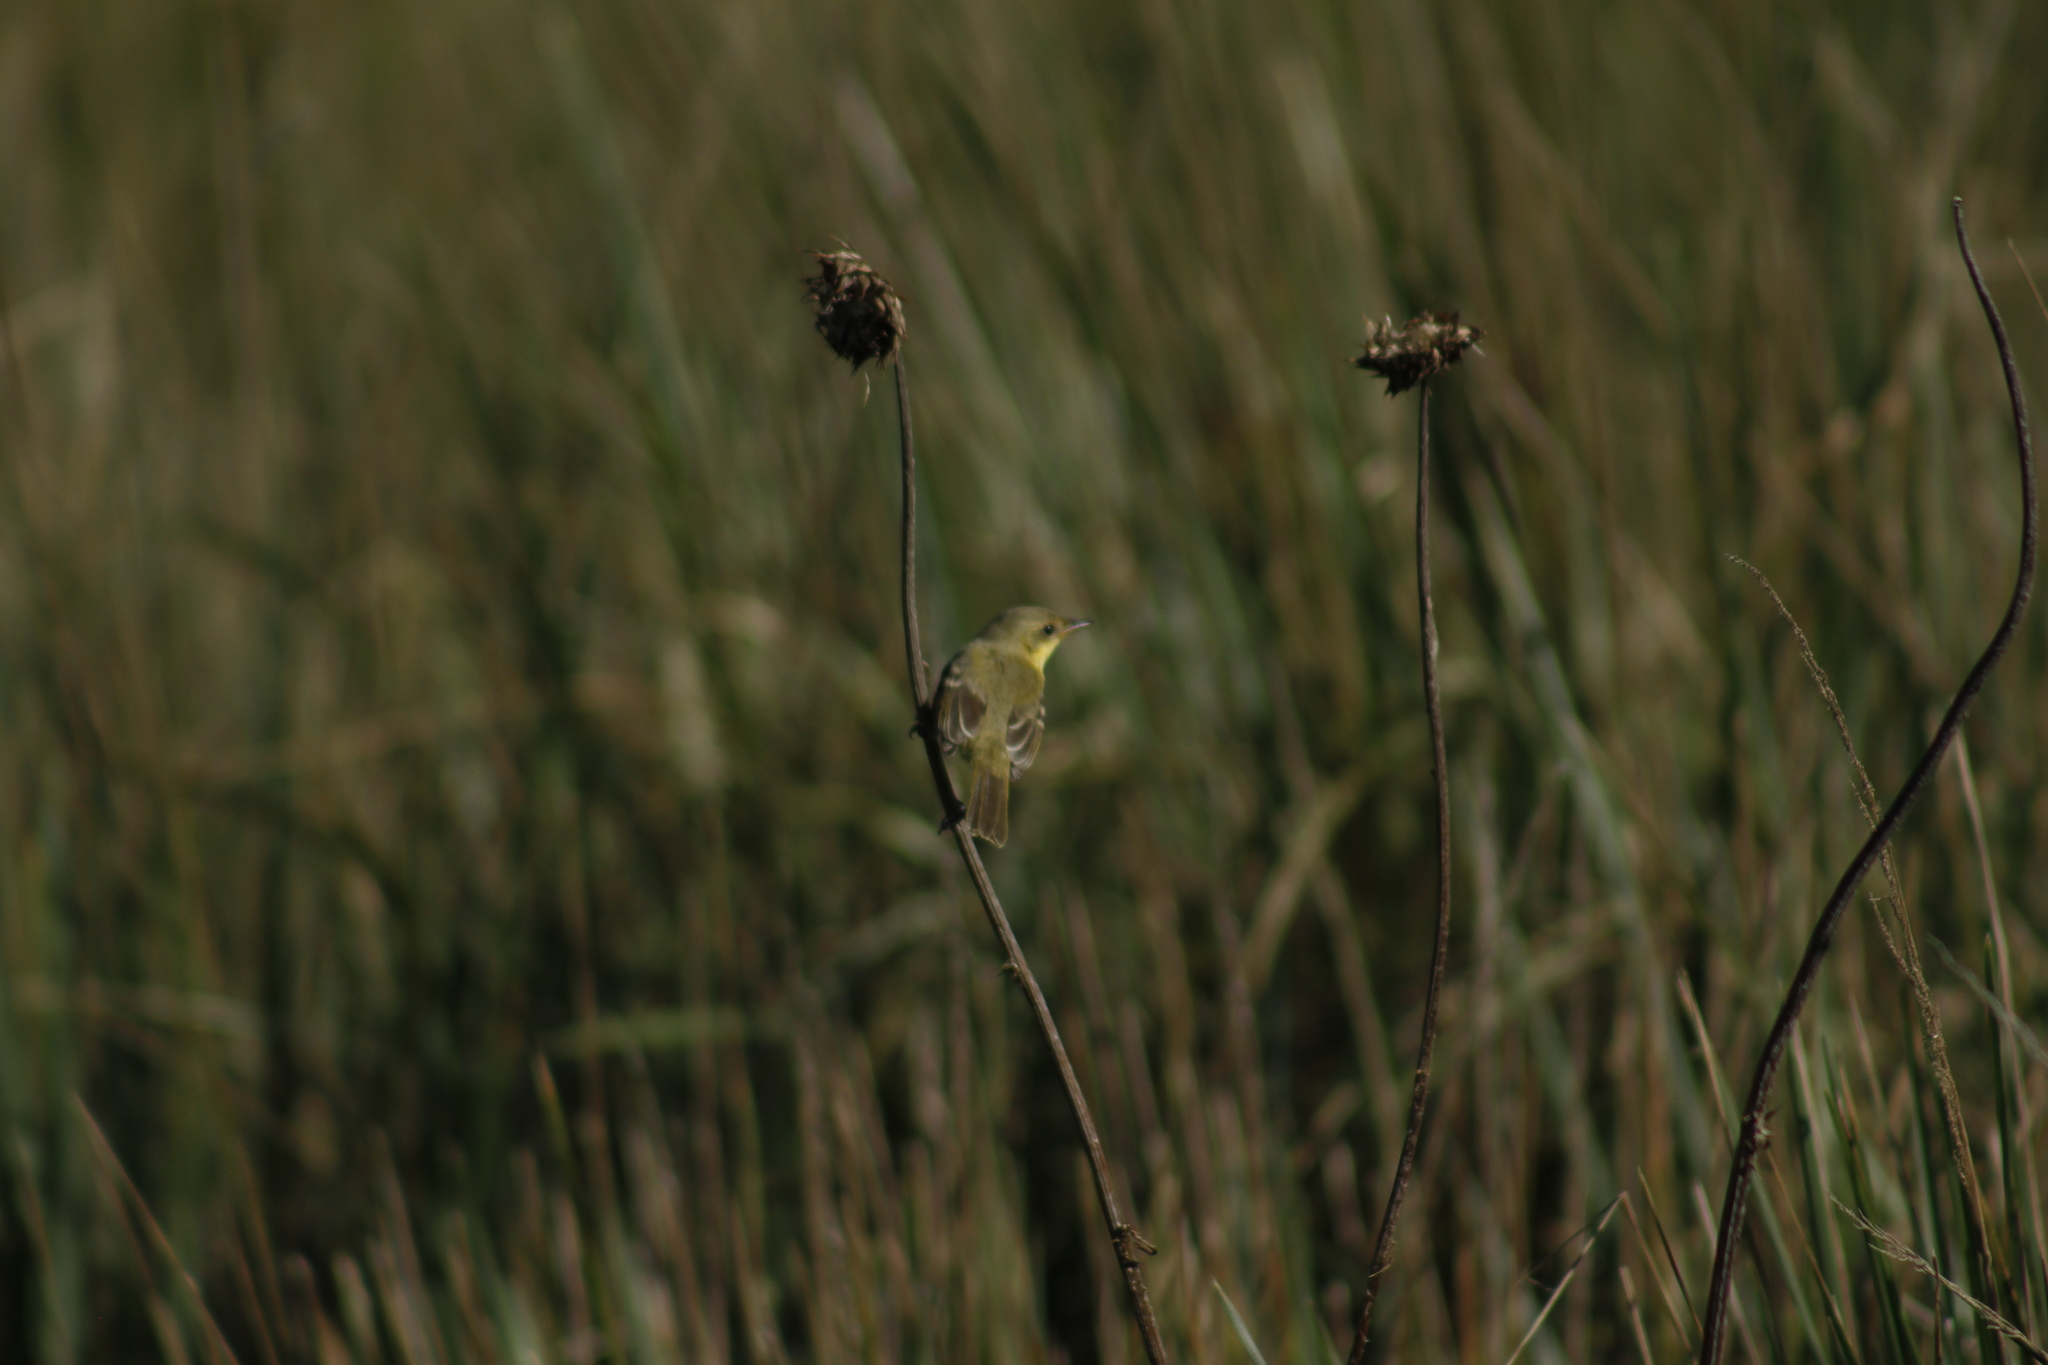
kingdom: Animalia
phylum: Chordata
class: Aves
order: Passeriformes
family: Tyrannidae
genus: Pseudocolopteryx
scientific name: Pseudocolopteryx acutipennis
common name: Subtropical doradito
